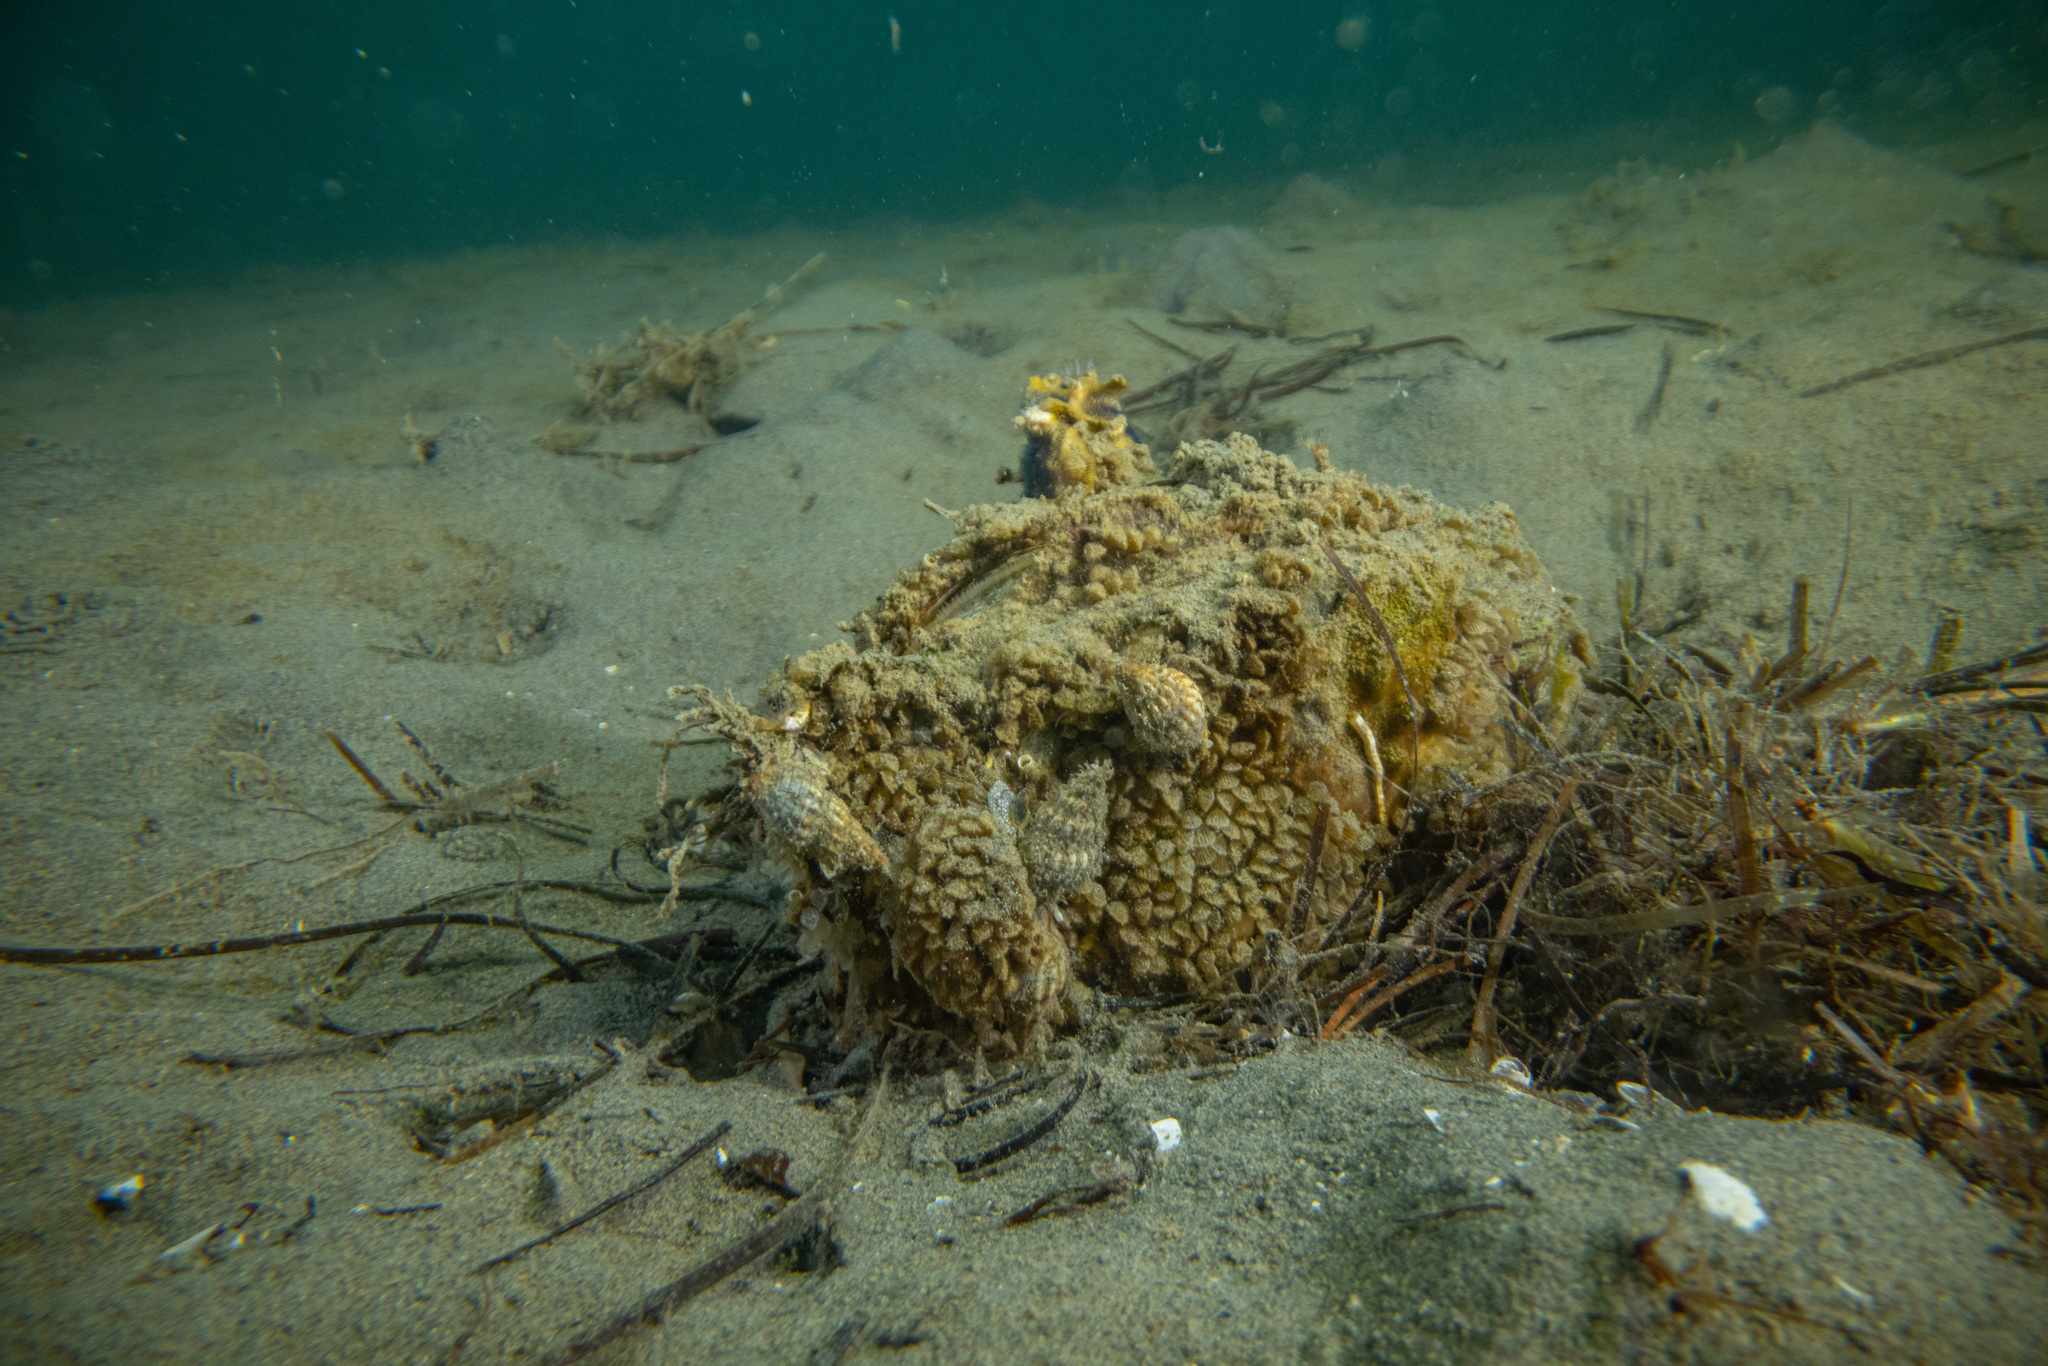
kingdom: Animalia
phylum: Mollusca
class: Bivalvia
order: Ostreida
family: Pinnidae
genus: Atrina
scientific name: Atrina zelandica
